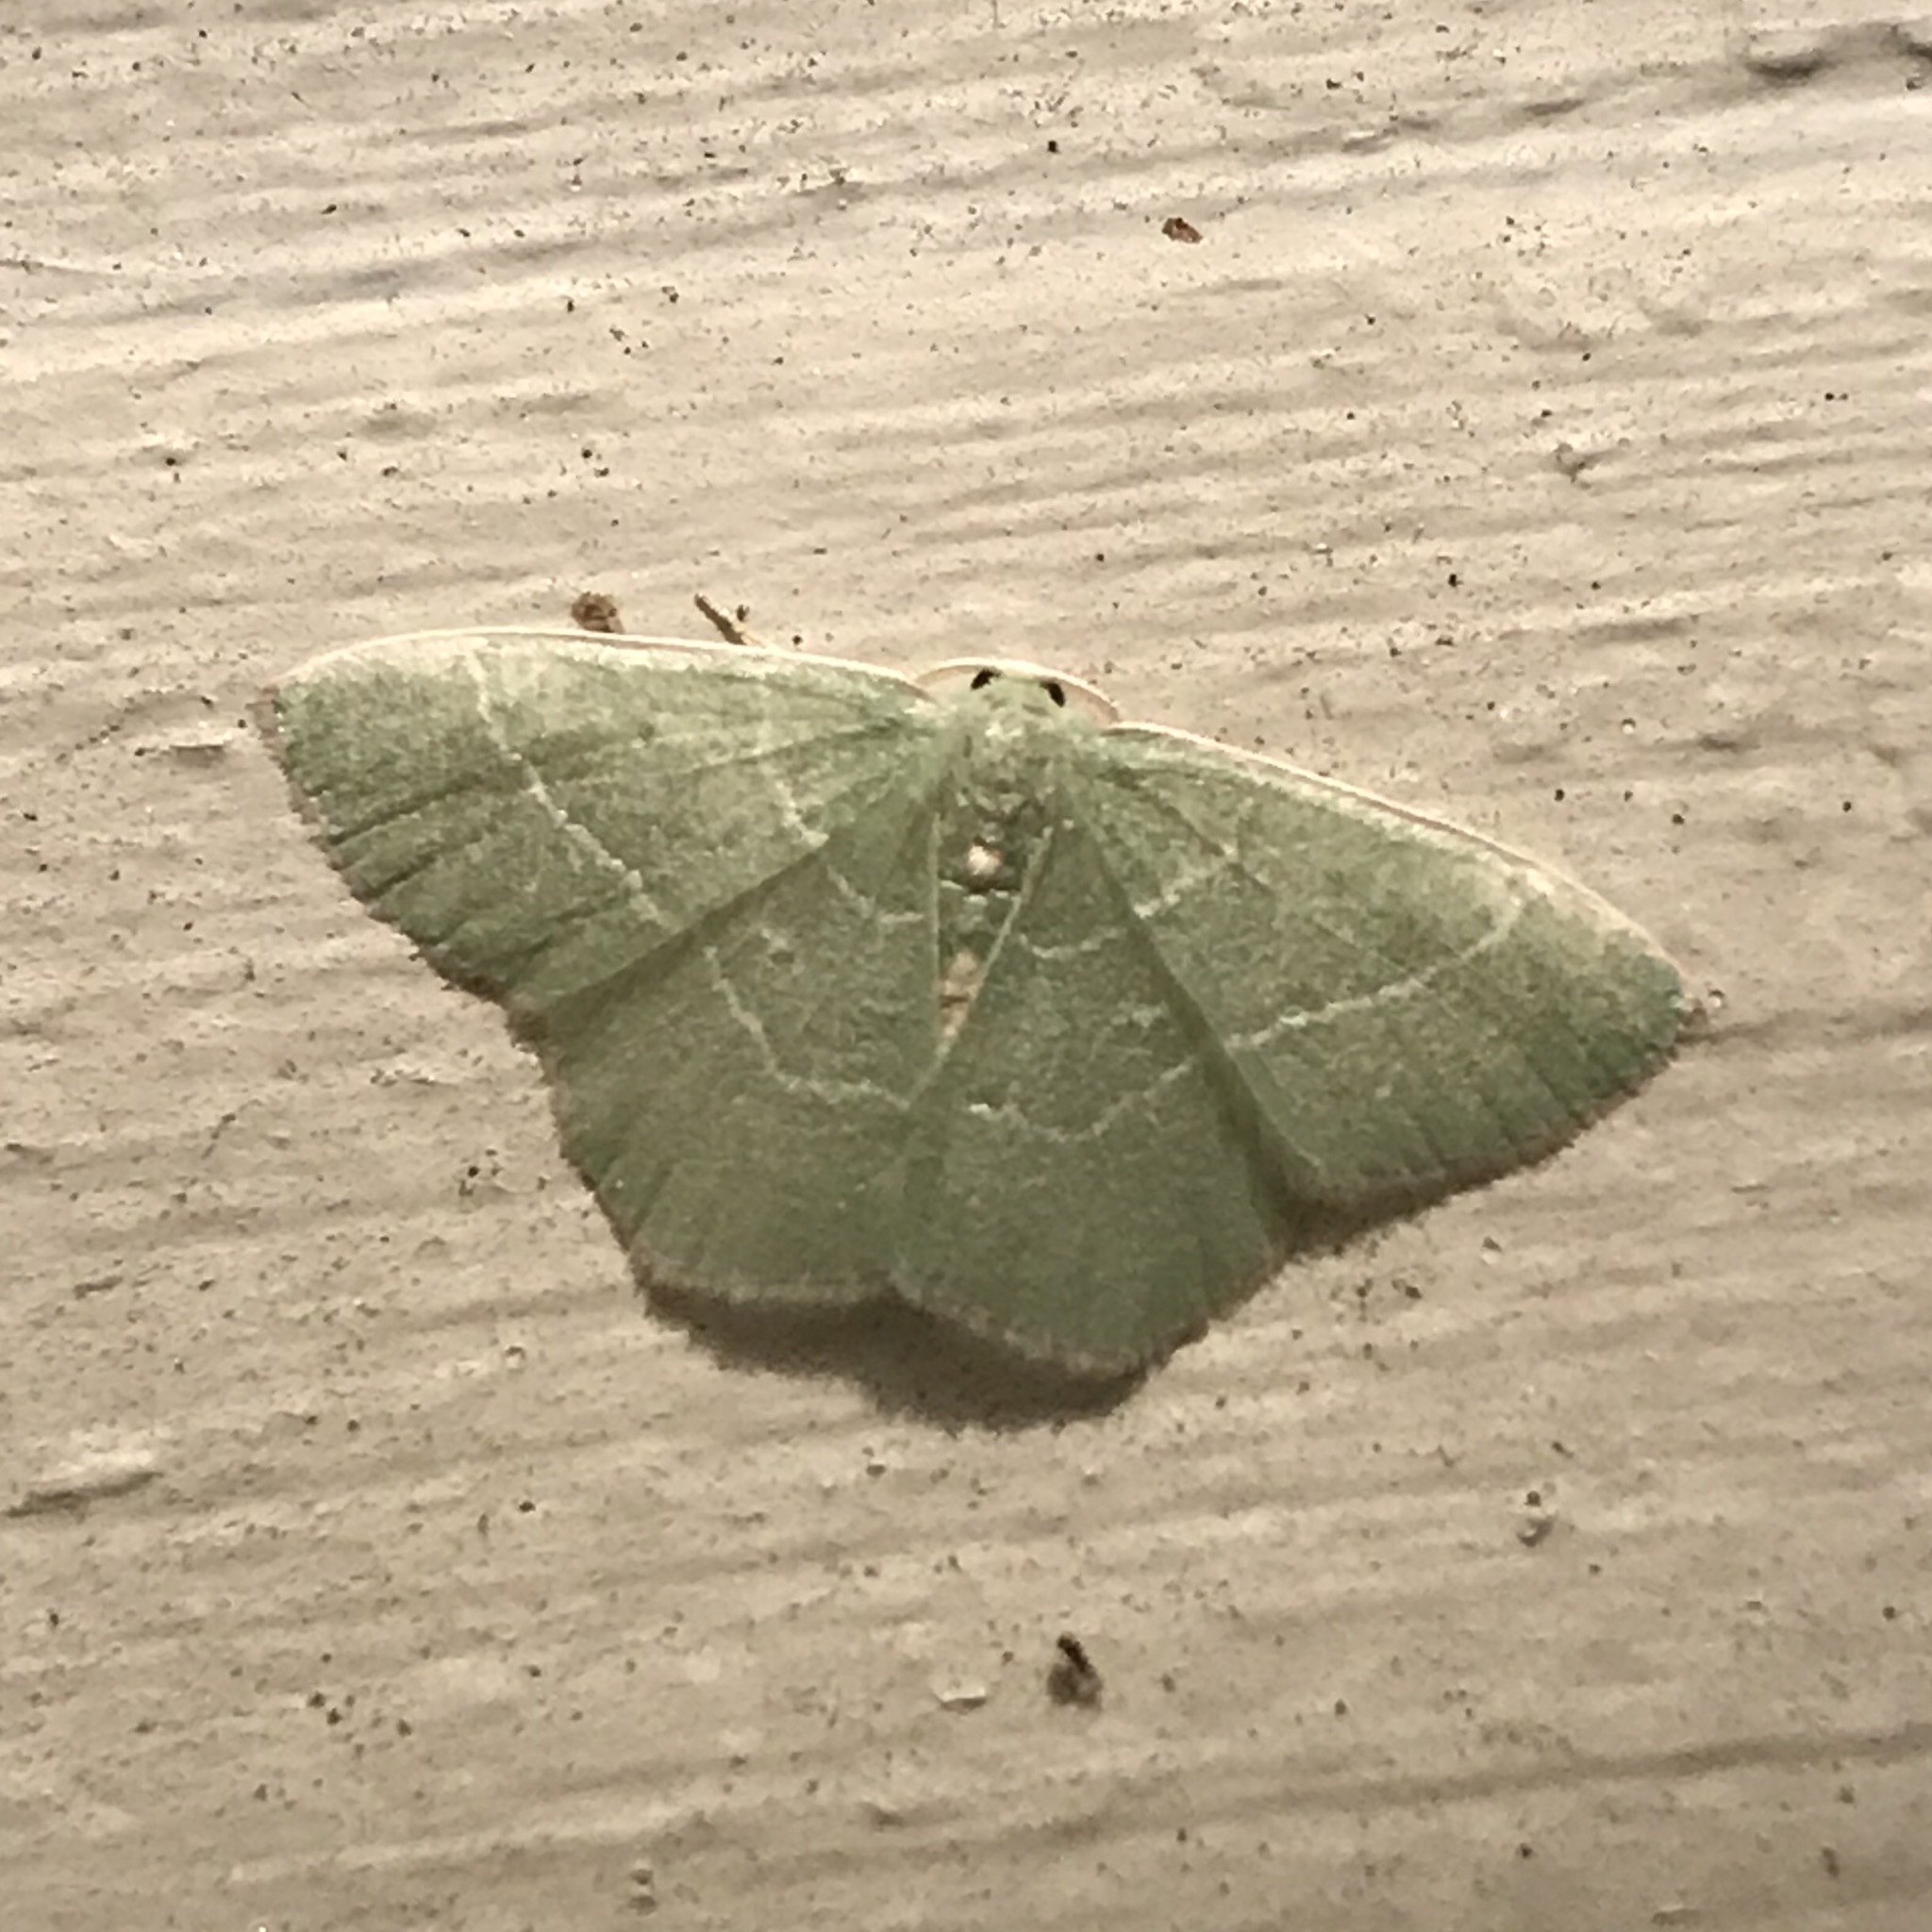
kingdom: Animalia
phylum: Arthropoda
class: Insecta
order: Lepidoptera
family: Geometridae
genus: Nemoria
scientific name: Nemoria bistriaria
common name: Red-fringed emerald
